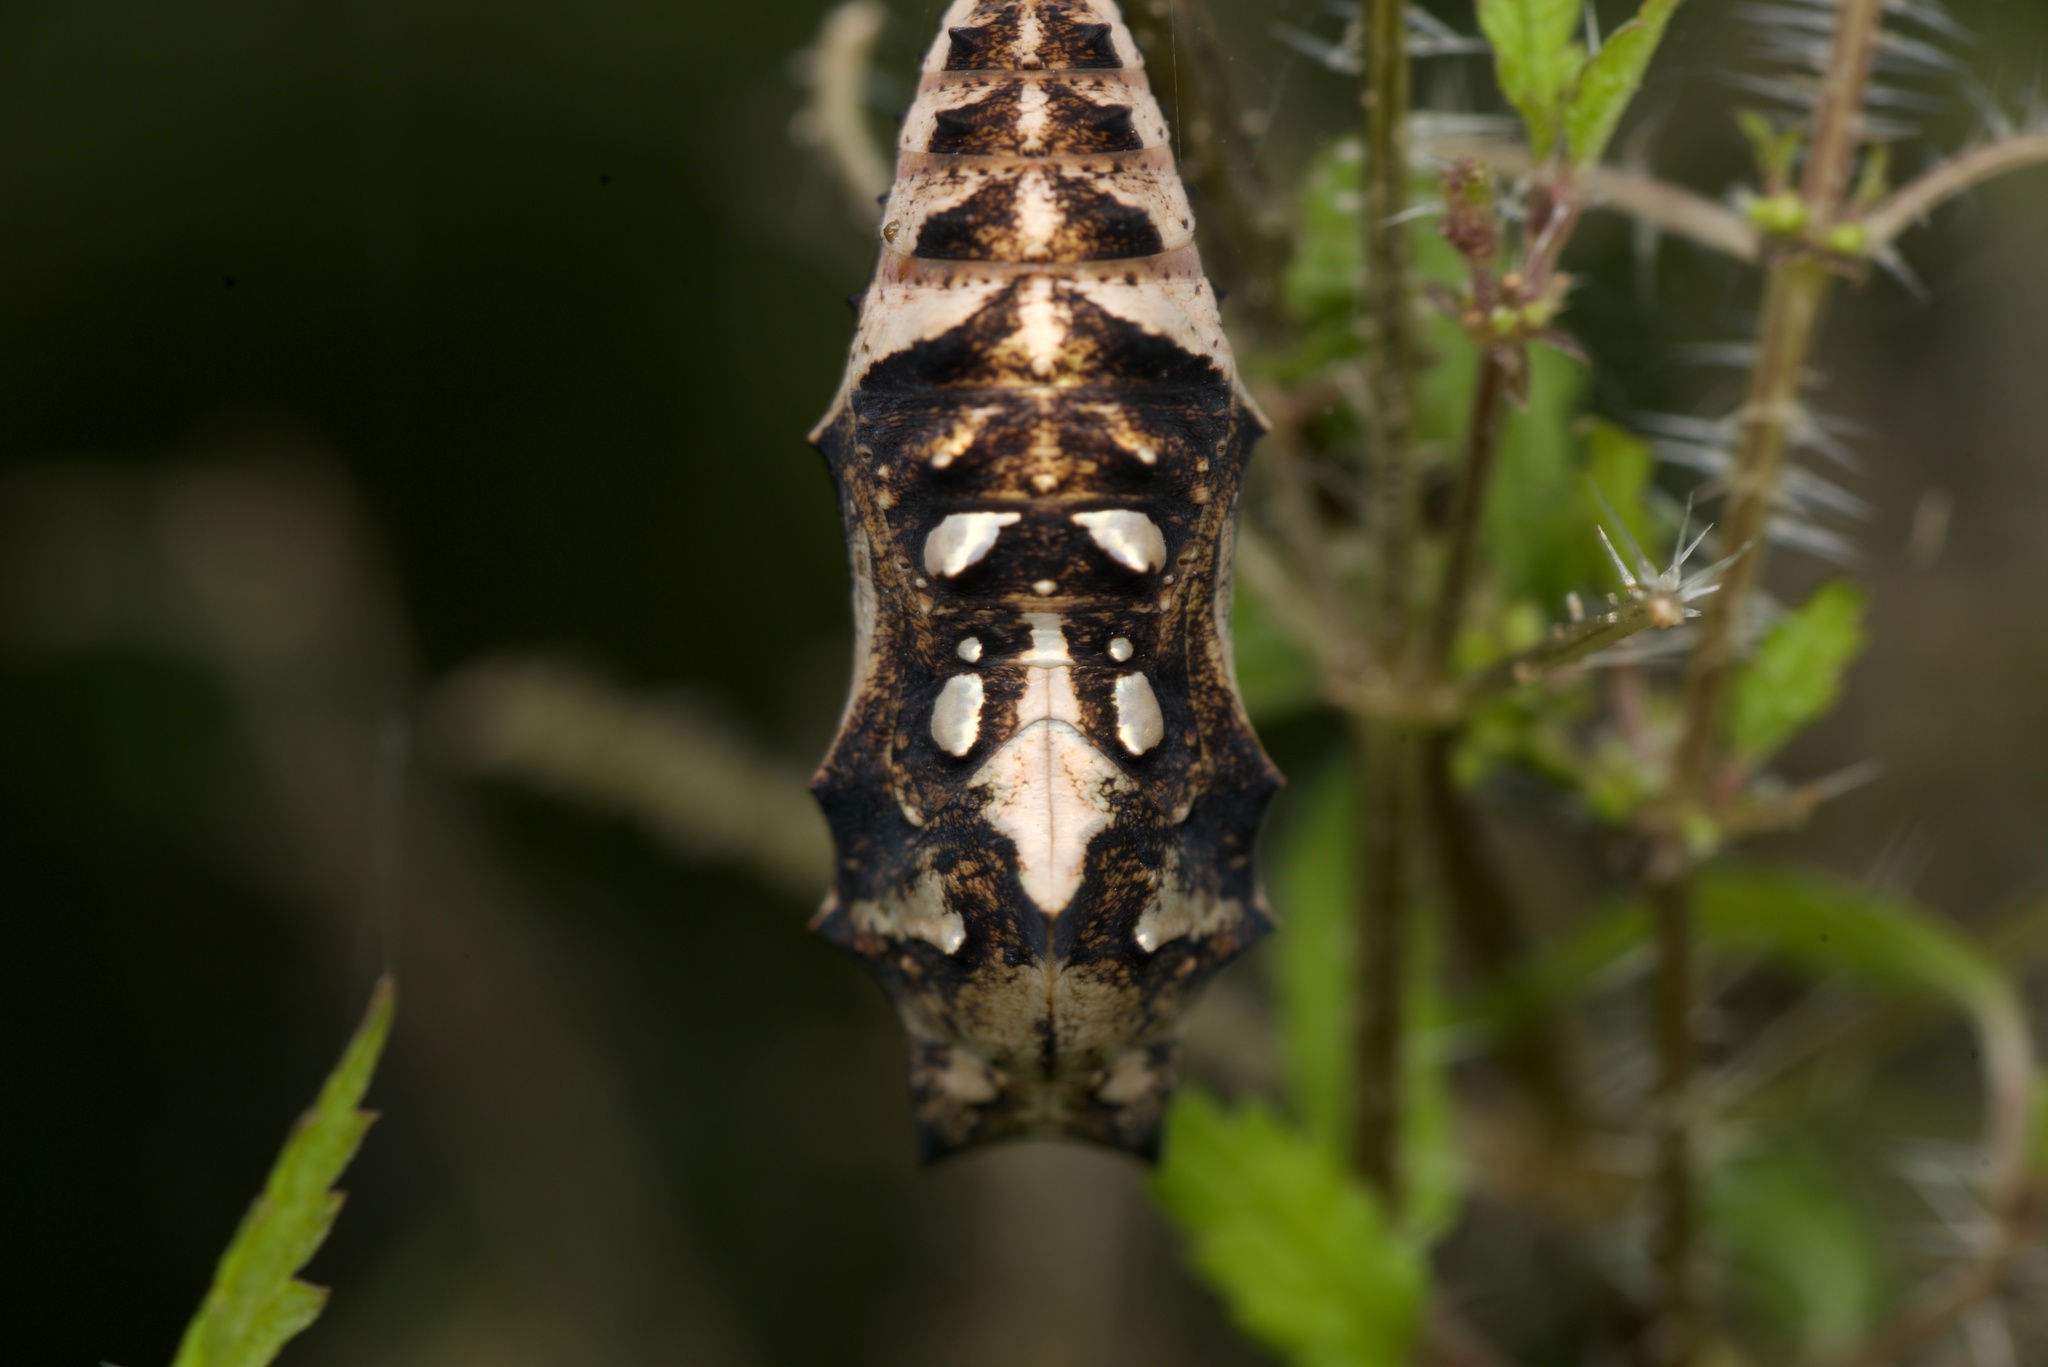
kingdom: Animalia
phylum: Arthropoda
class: Insecta
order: Lepidoptera
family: Nymphalidae
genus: Vanessa
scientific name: Vanessa itea
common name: Yellow admiral
